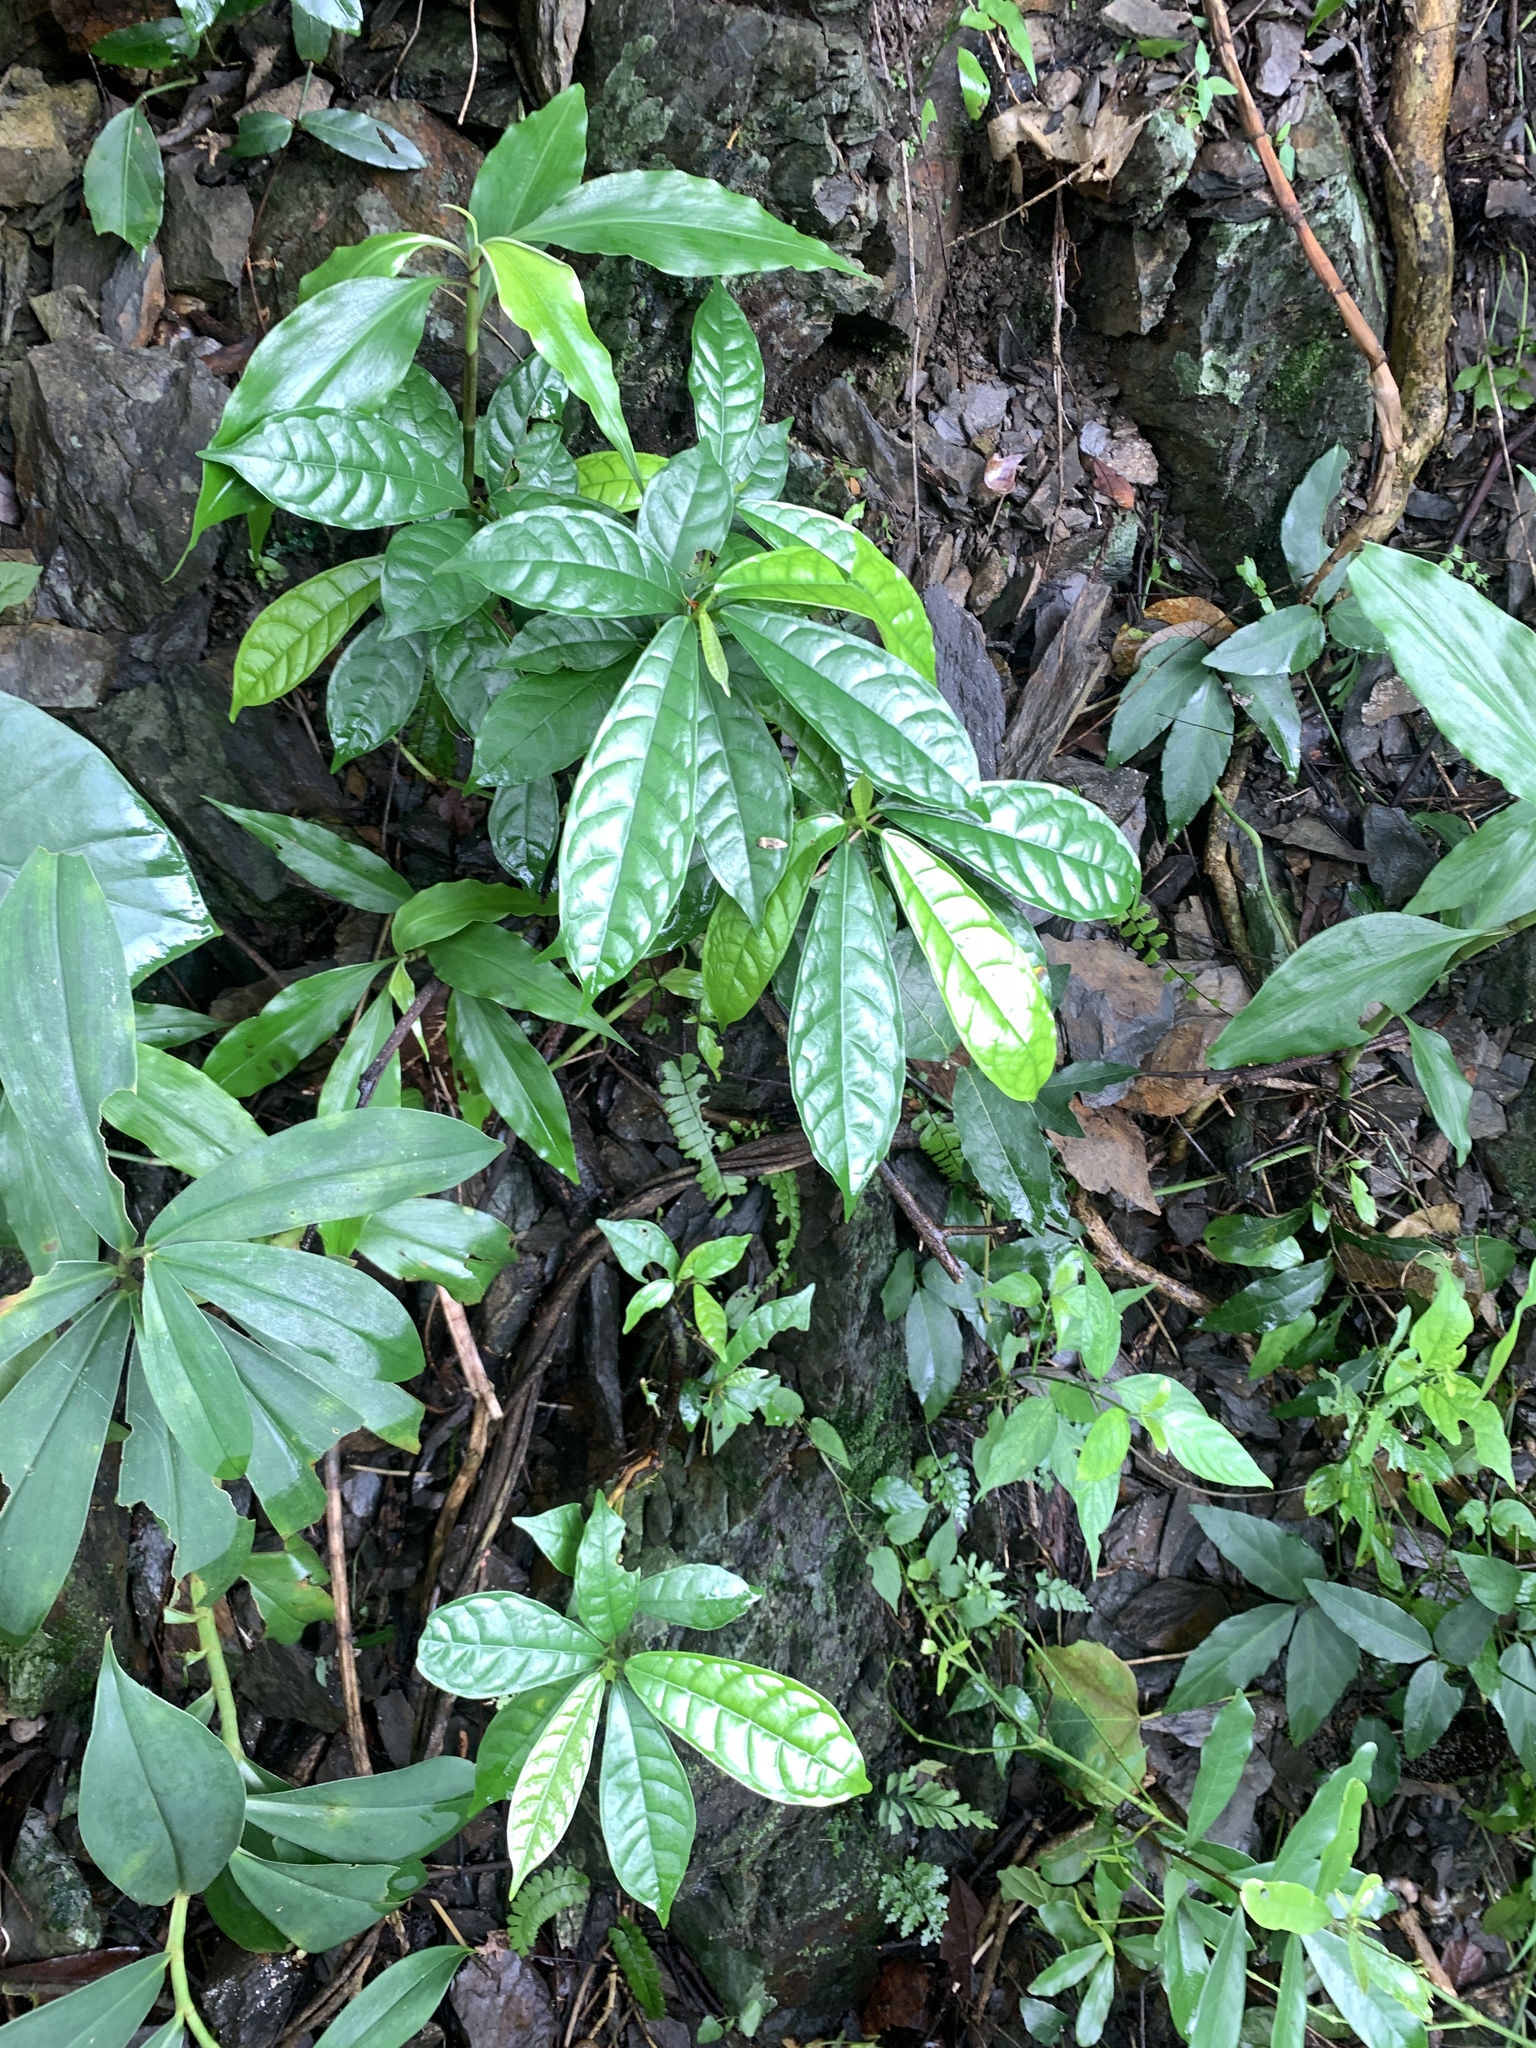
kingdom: Plantae
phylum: Tracheophyta
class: Magnoliopsida
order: Rosales
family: Moraceae
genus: Ficus
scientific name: Ficus nervosa
